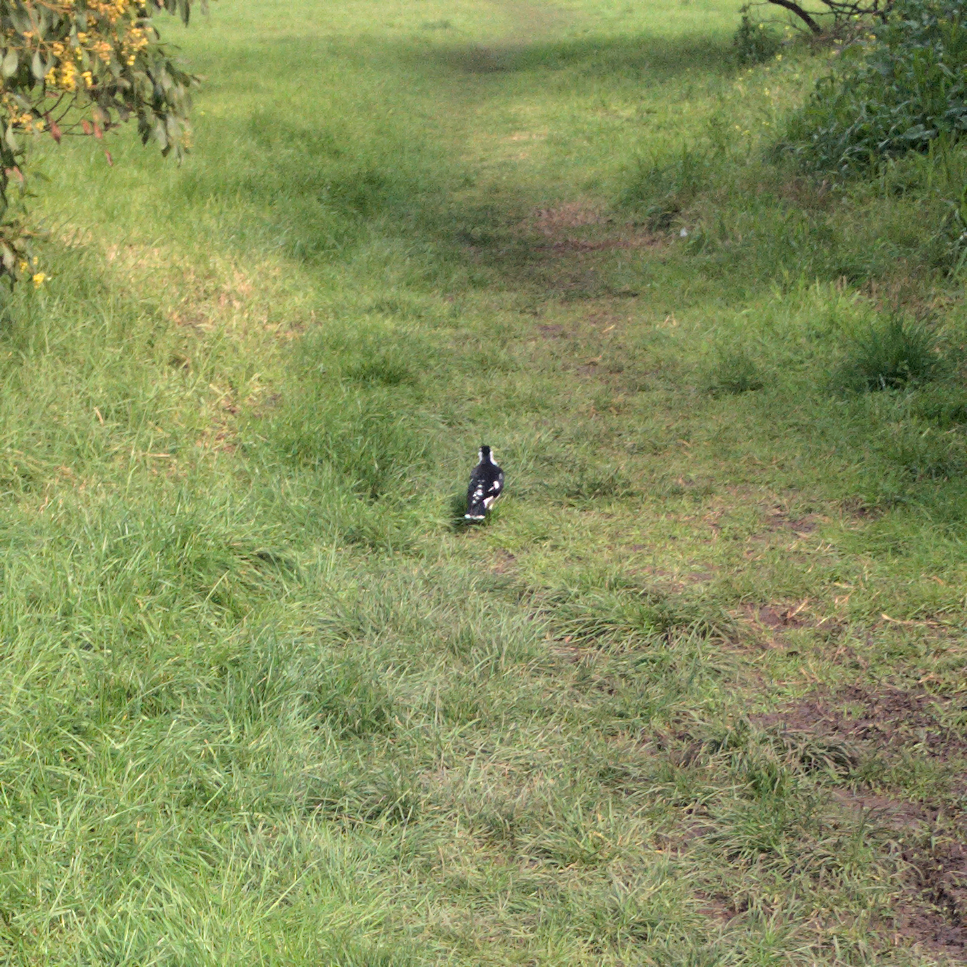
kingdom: Animalia
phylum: Chordata
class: Aves
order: Passeriformes
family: Monarchidae
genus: Grallina
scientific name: Grallina cyanoleuca
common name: Magpie-lark
